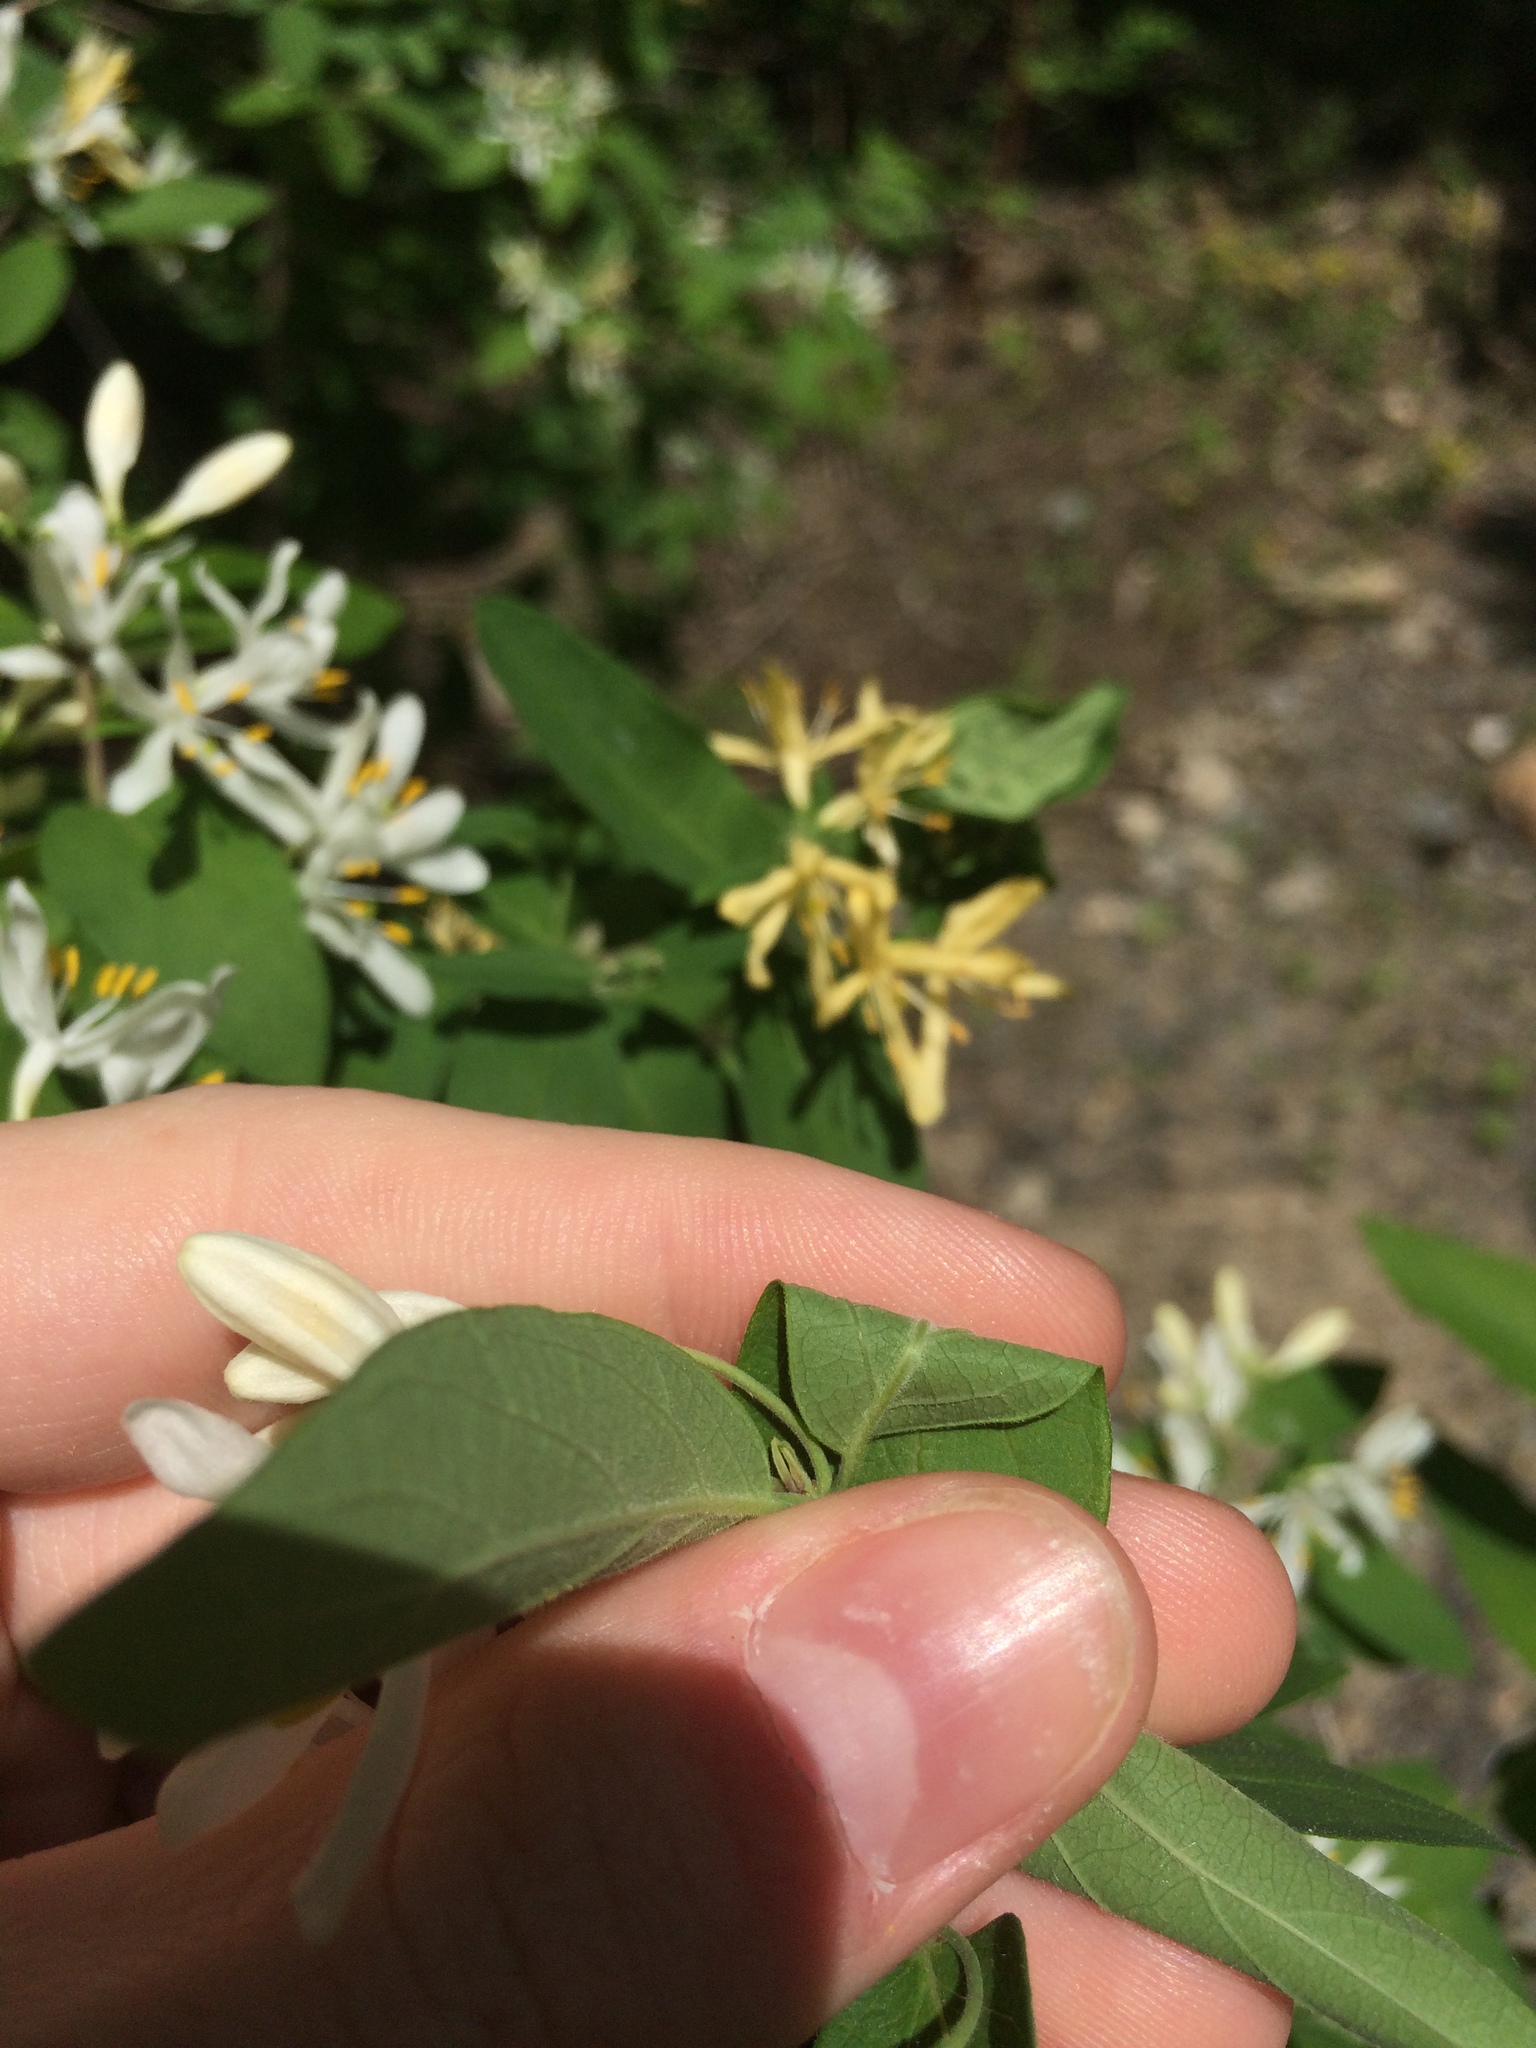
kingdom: Plantae
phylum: Tracheophyta
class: Magnoliopsida
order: Dipsacales
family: Caprifoliaceae
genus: Lonicera
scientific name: Lonicera bella
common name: Bell's honeysuckle
